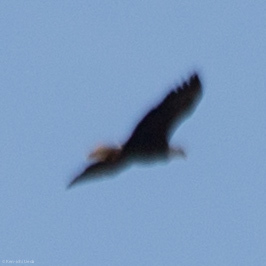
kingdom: Animalia
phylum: Chordata
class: Aves
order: Accipitriformes
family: Accipitridae
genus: Haliaeetus
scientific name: Haliaeetus leucocephalus
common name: Bald eagle
